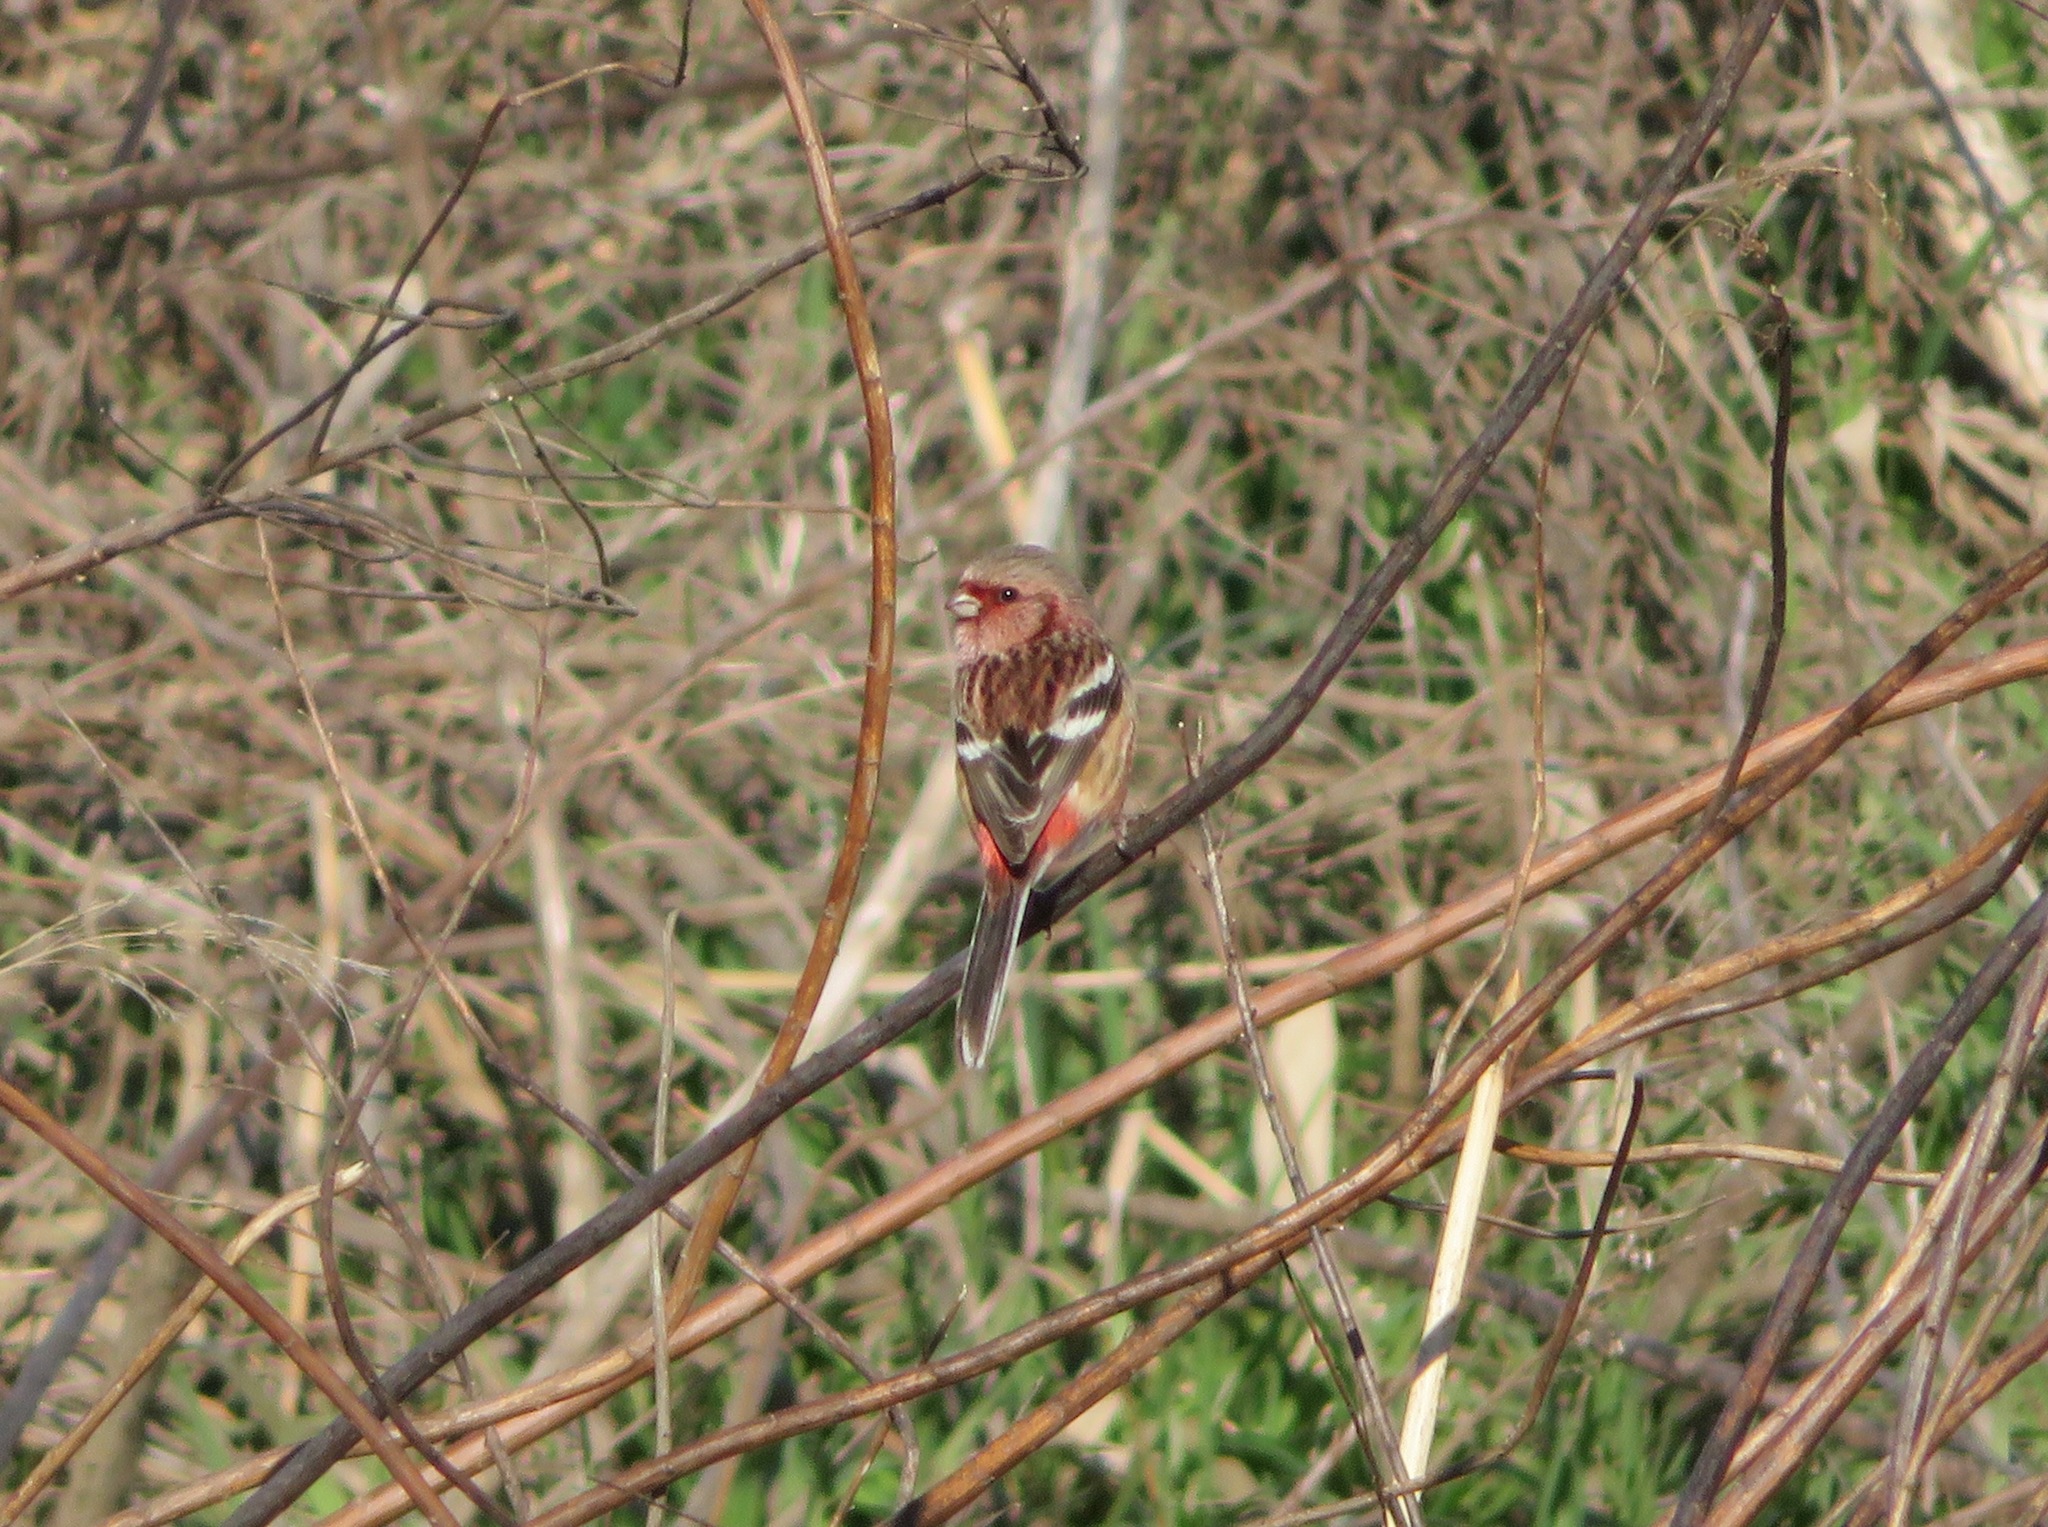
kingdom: Animalia
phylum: Chordata
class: Aves
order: Passeriformes
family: Fringillidae
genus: Carpodacus
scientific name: Carpodacus sibiricus
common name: Long-tailed rosefinch
